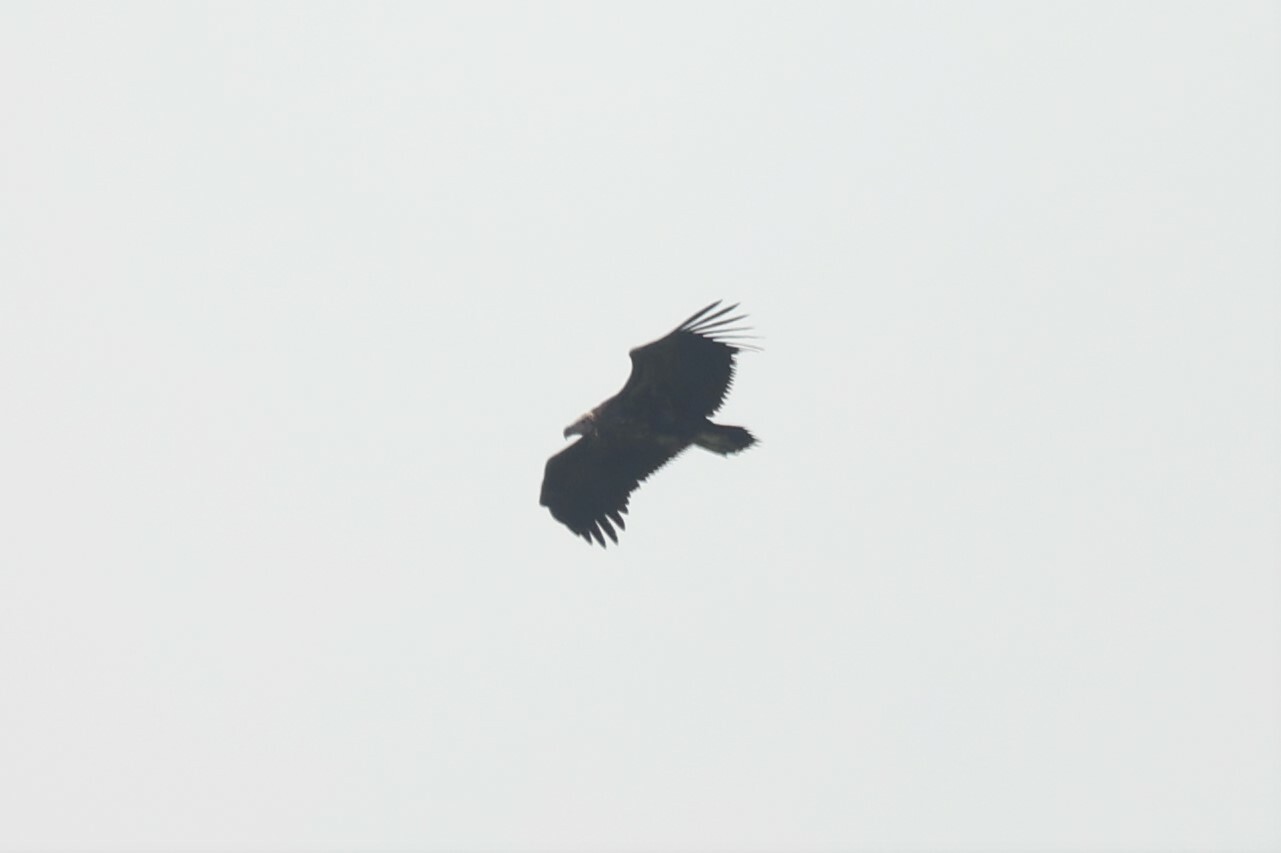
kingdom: Animalia
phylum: Chordata
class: Aves
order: Accipitriformes
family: Accipitridae
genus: Torgos
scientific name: Torgos tracheliotos
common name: Lappet-faced vulture
